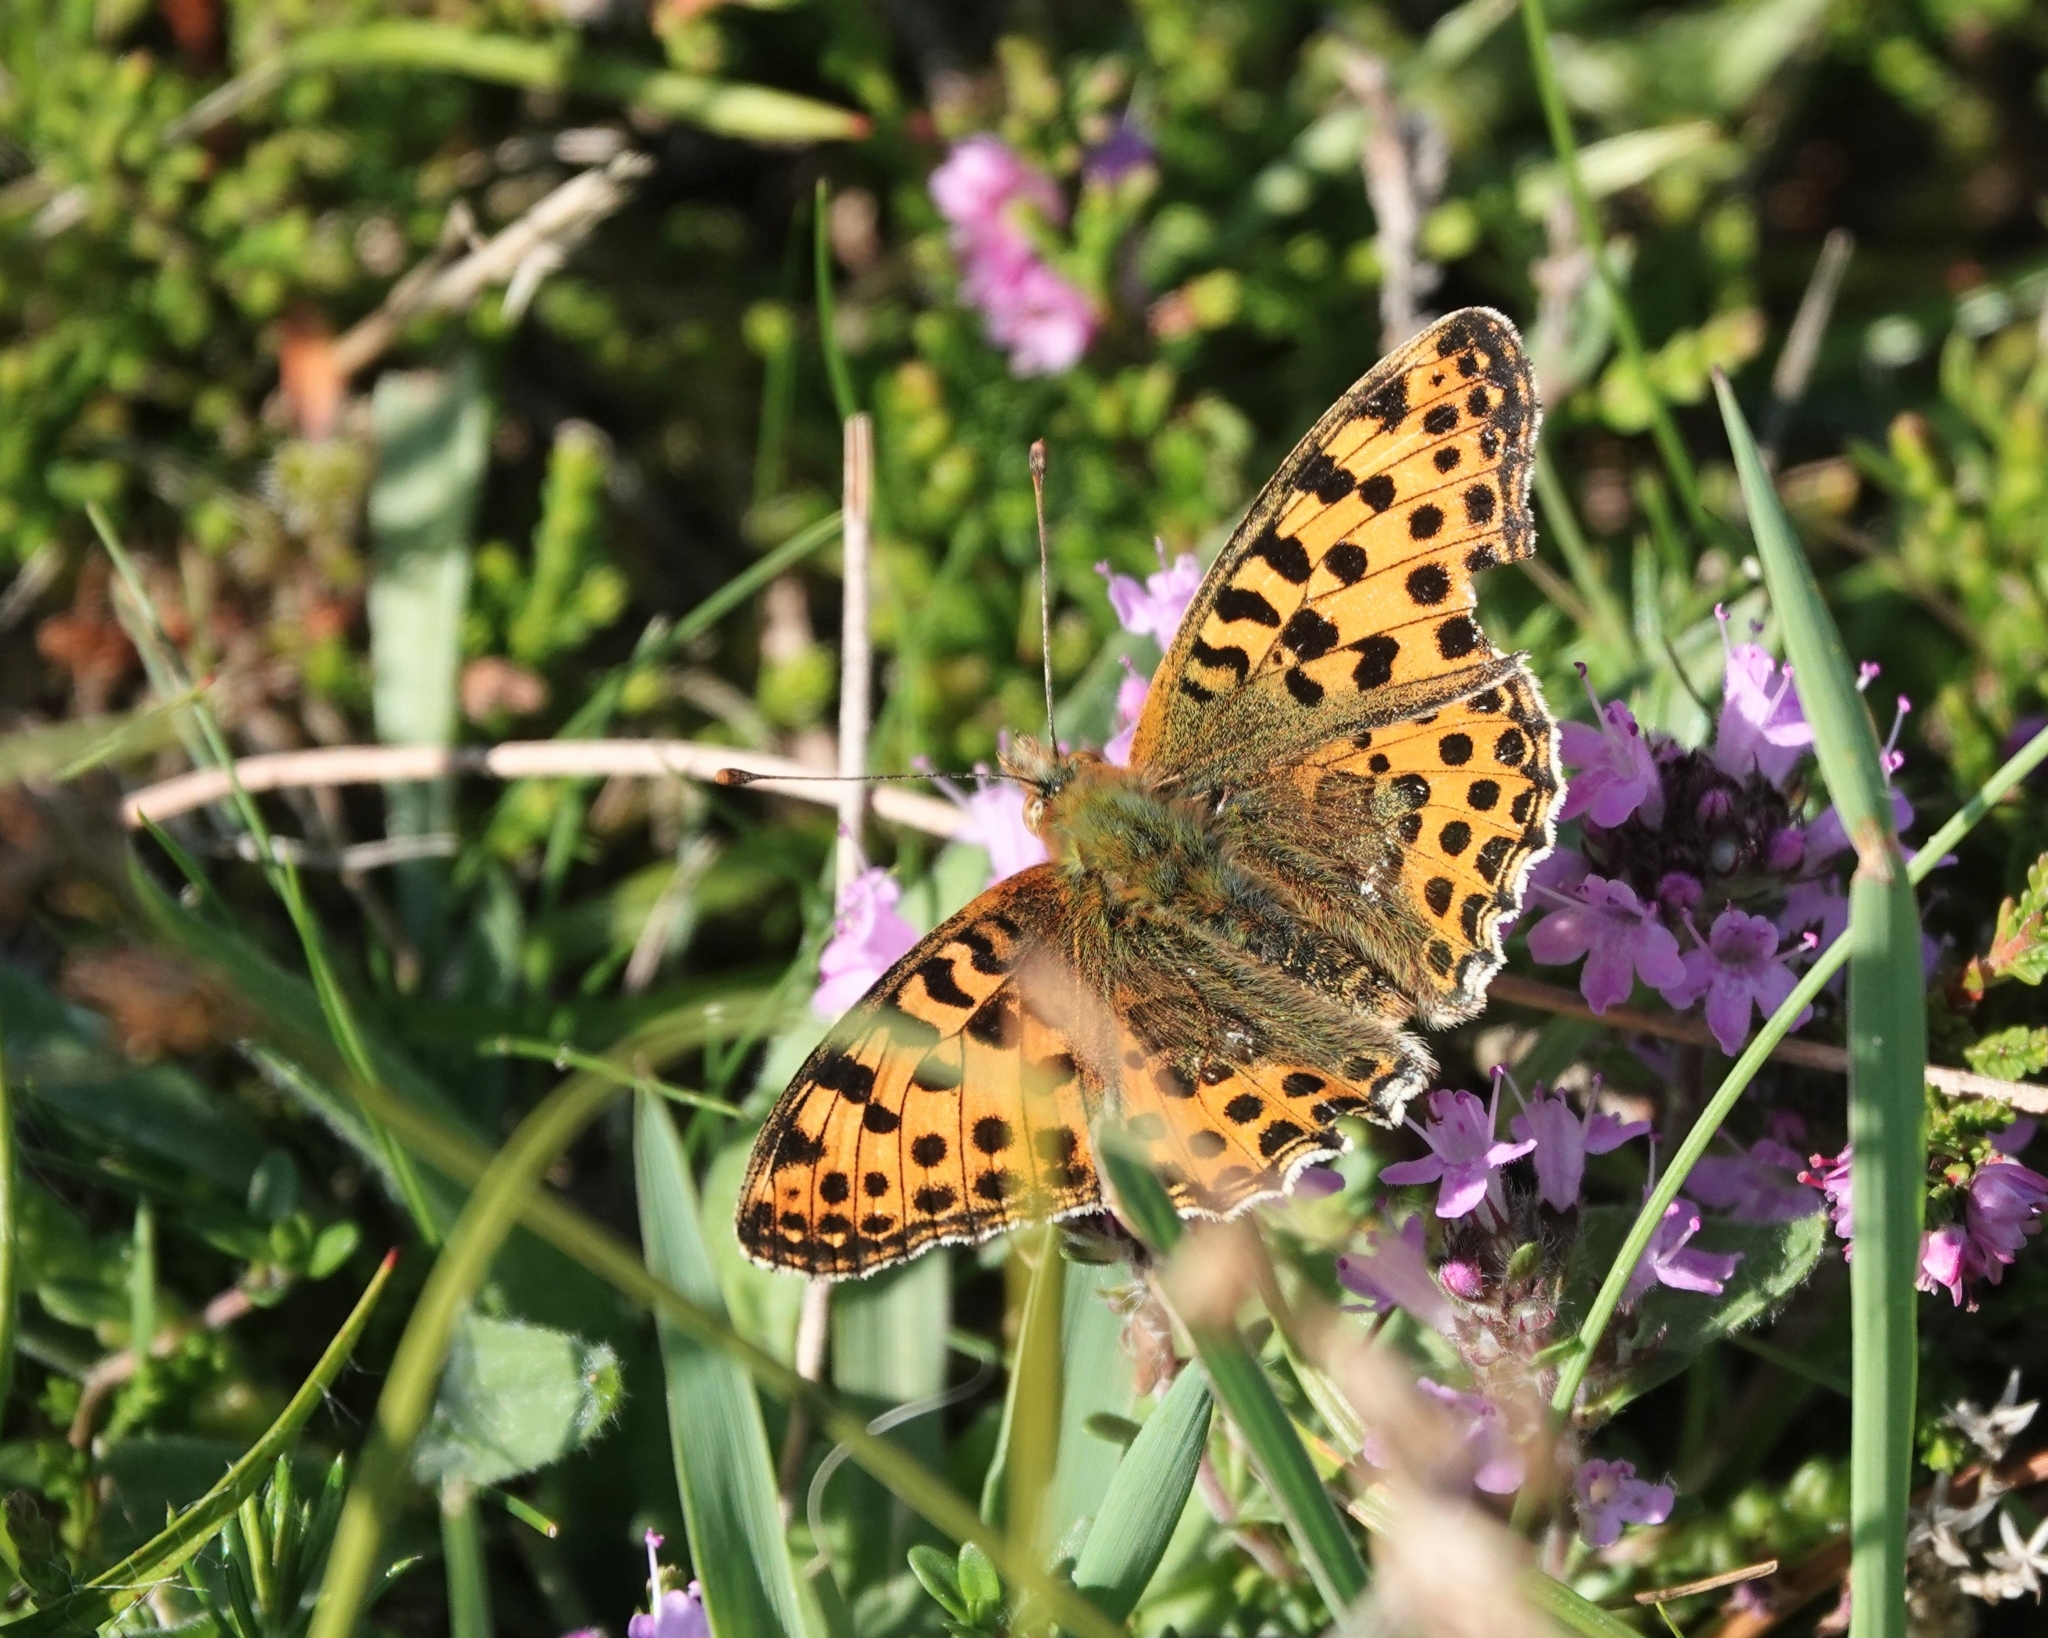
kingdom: Animalia
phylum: Arthropoda
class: Insecta
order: Lepidoptera
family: Nymphalidae
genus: Issoria
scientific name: Issoria lathonia
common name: Queen of spain fritillary
